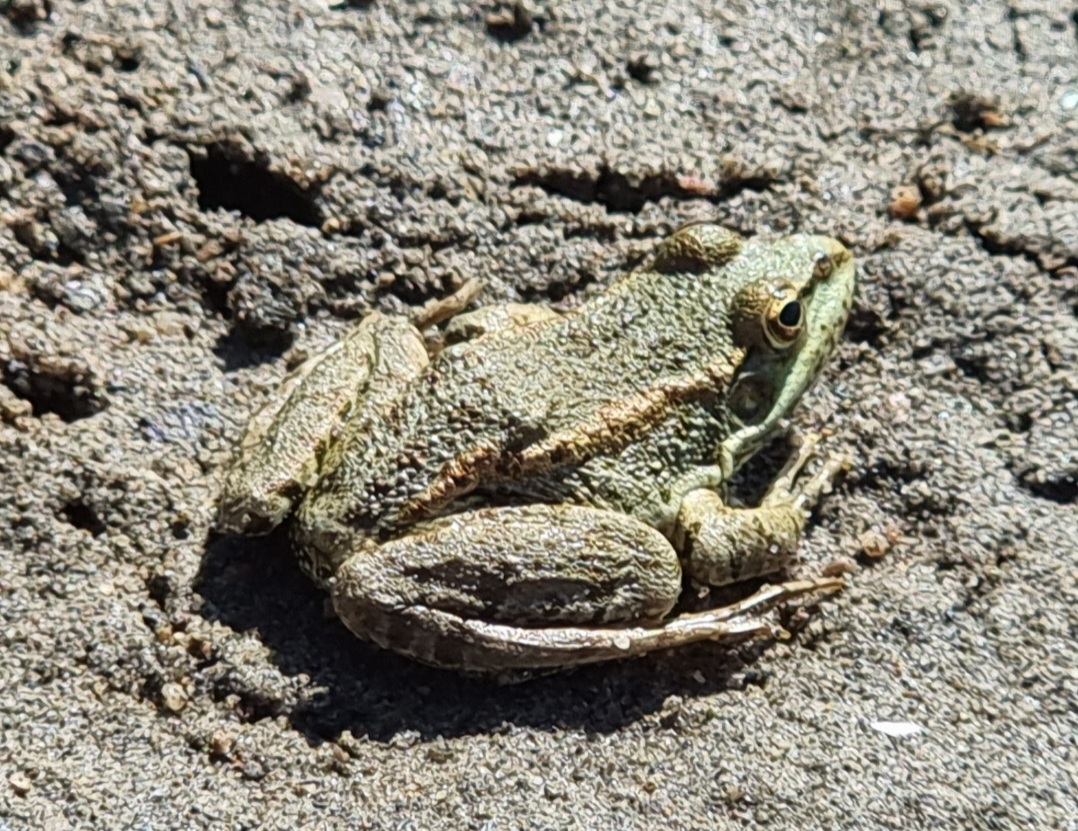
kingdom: Animalia
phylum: Chordata
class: Amphibia
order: Anura
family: Ranidae
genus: Pelophylax
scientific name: Pelophylax ridibundus
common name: Marsh frog
